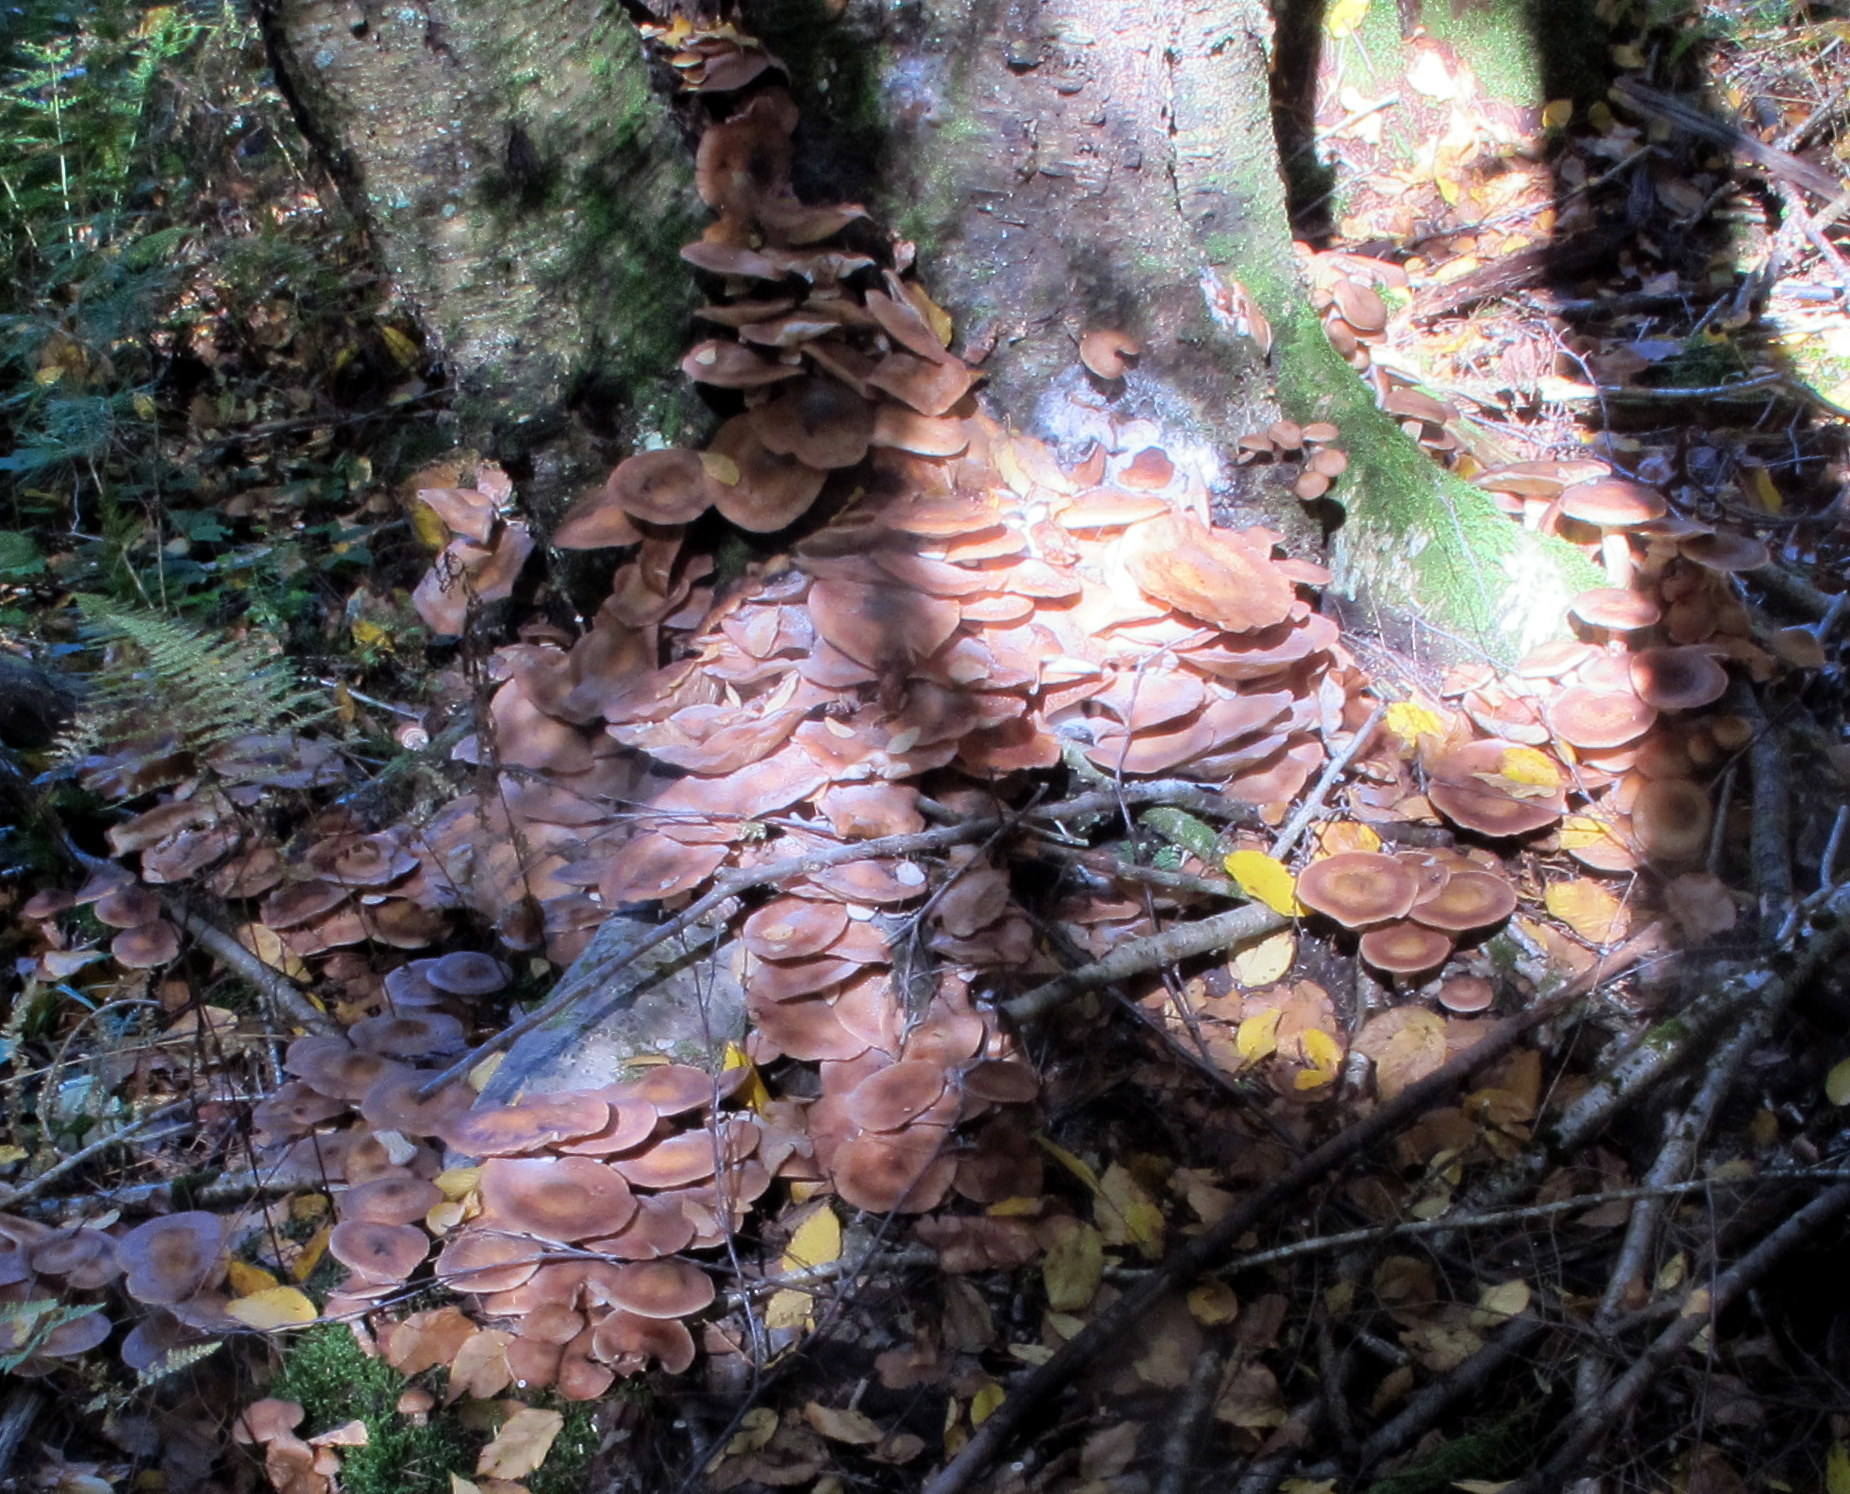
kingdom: Fungi
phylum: Basidiomycota
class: Agaricomycetes
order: Agaricales
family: Physalacriaceae
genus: Armillaria
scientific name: Armillaria ostoyae
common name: Dark honey fungus
